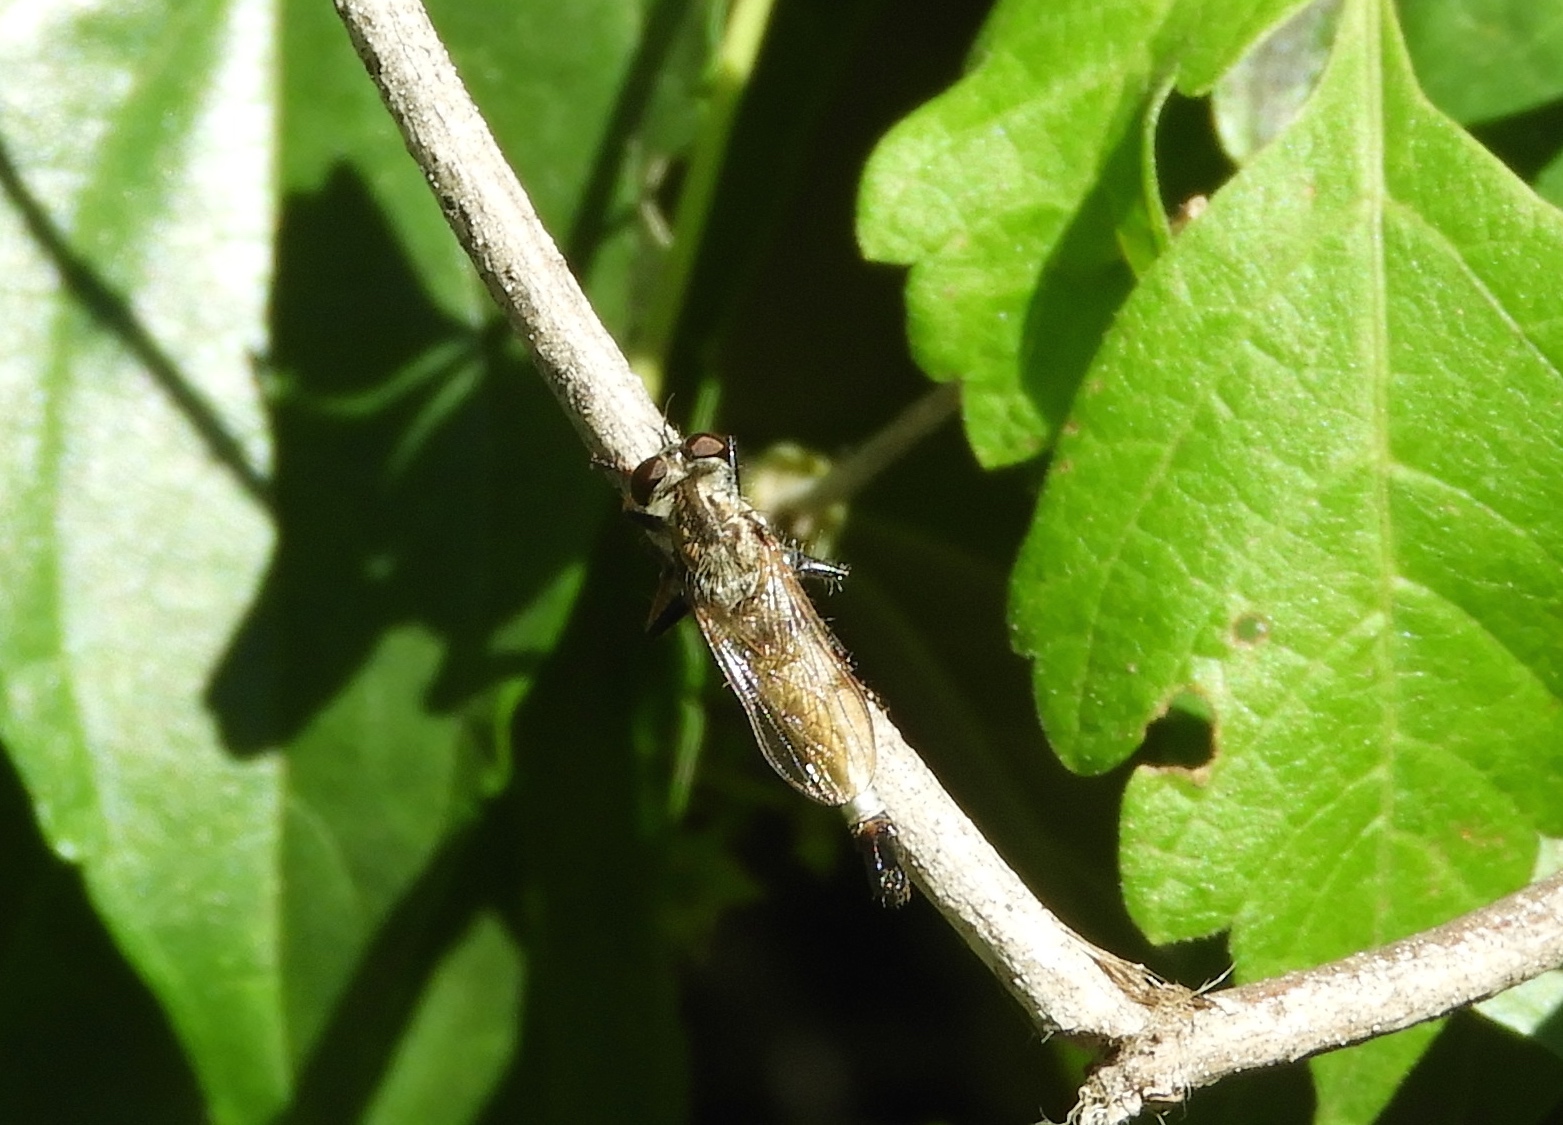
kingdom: Animalia
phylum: Arthropoda
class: Insecta
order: Diptera
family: Asilidae
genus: Efferia
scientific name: Efferia
